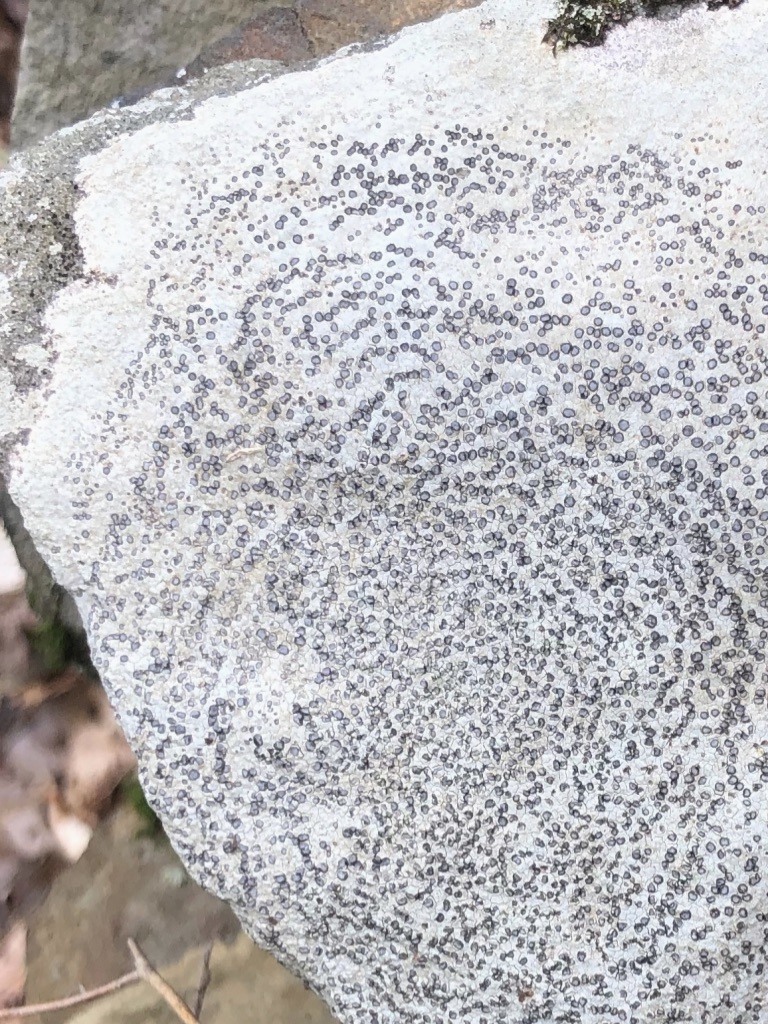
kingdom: Fungi
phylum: Ascomycota
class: Lecanoromycetes
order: Lecideales
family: Lecideaceae
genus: Porpidia
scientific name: Porpidia albocaerulescens
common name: Smokey-eyed boulder lichen
